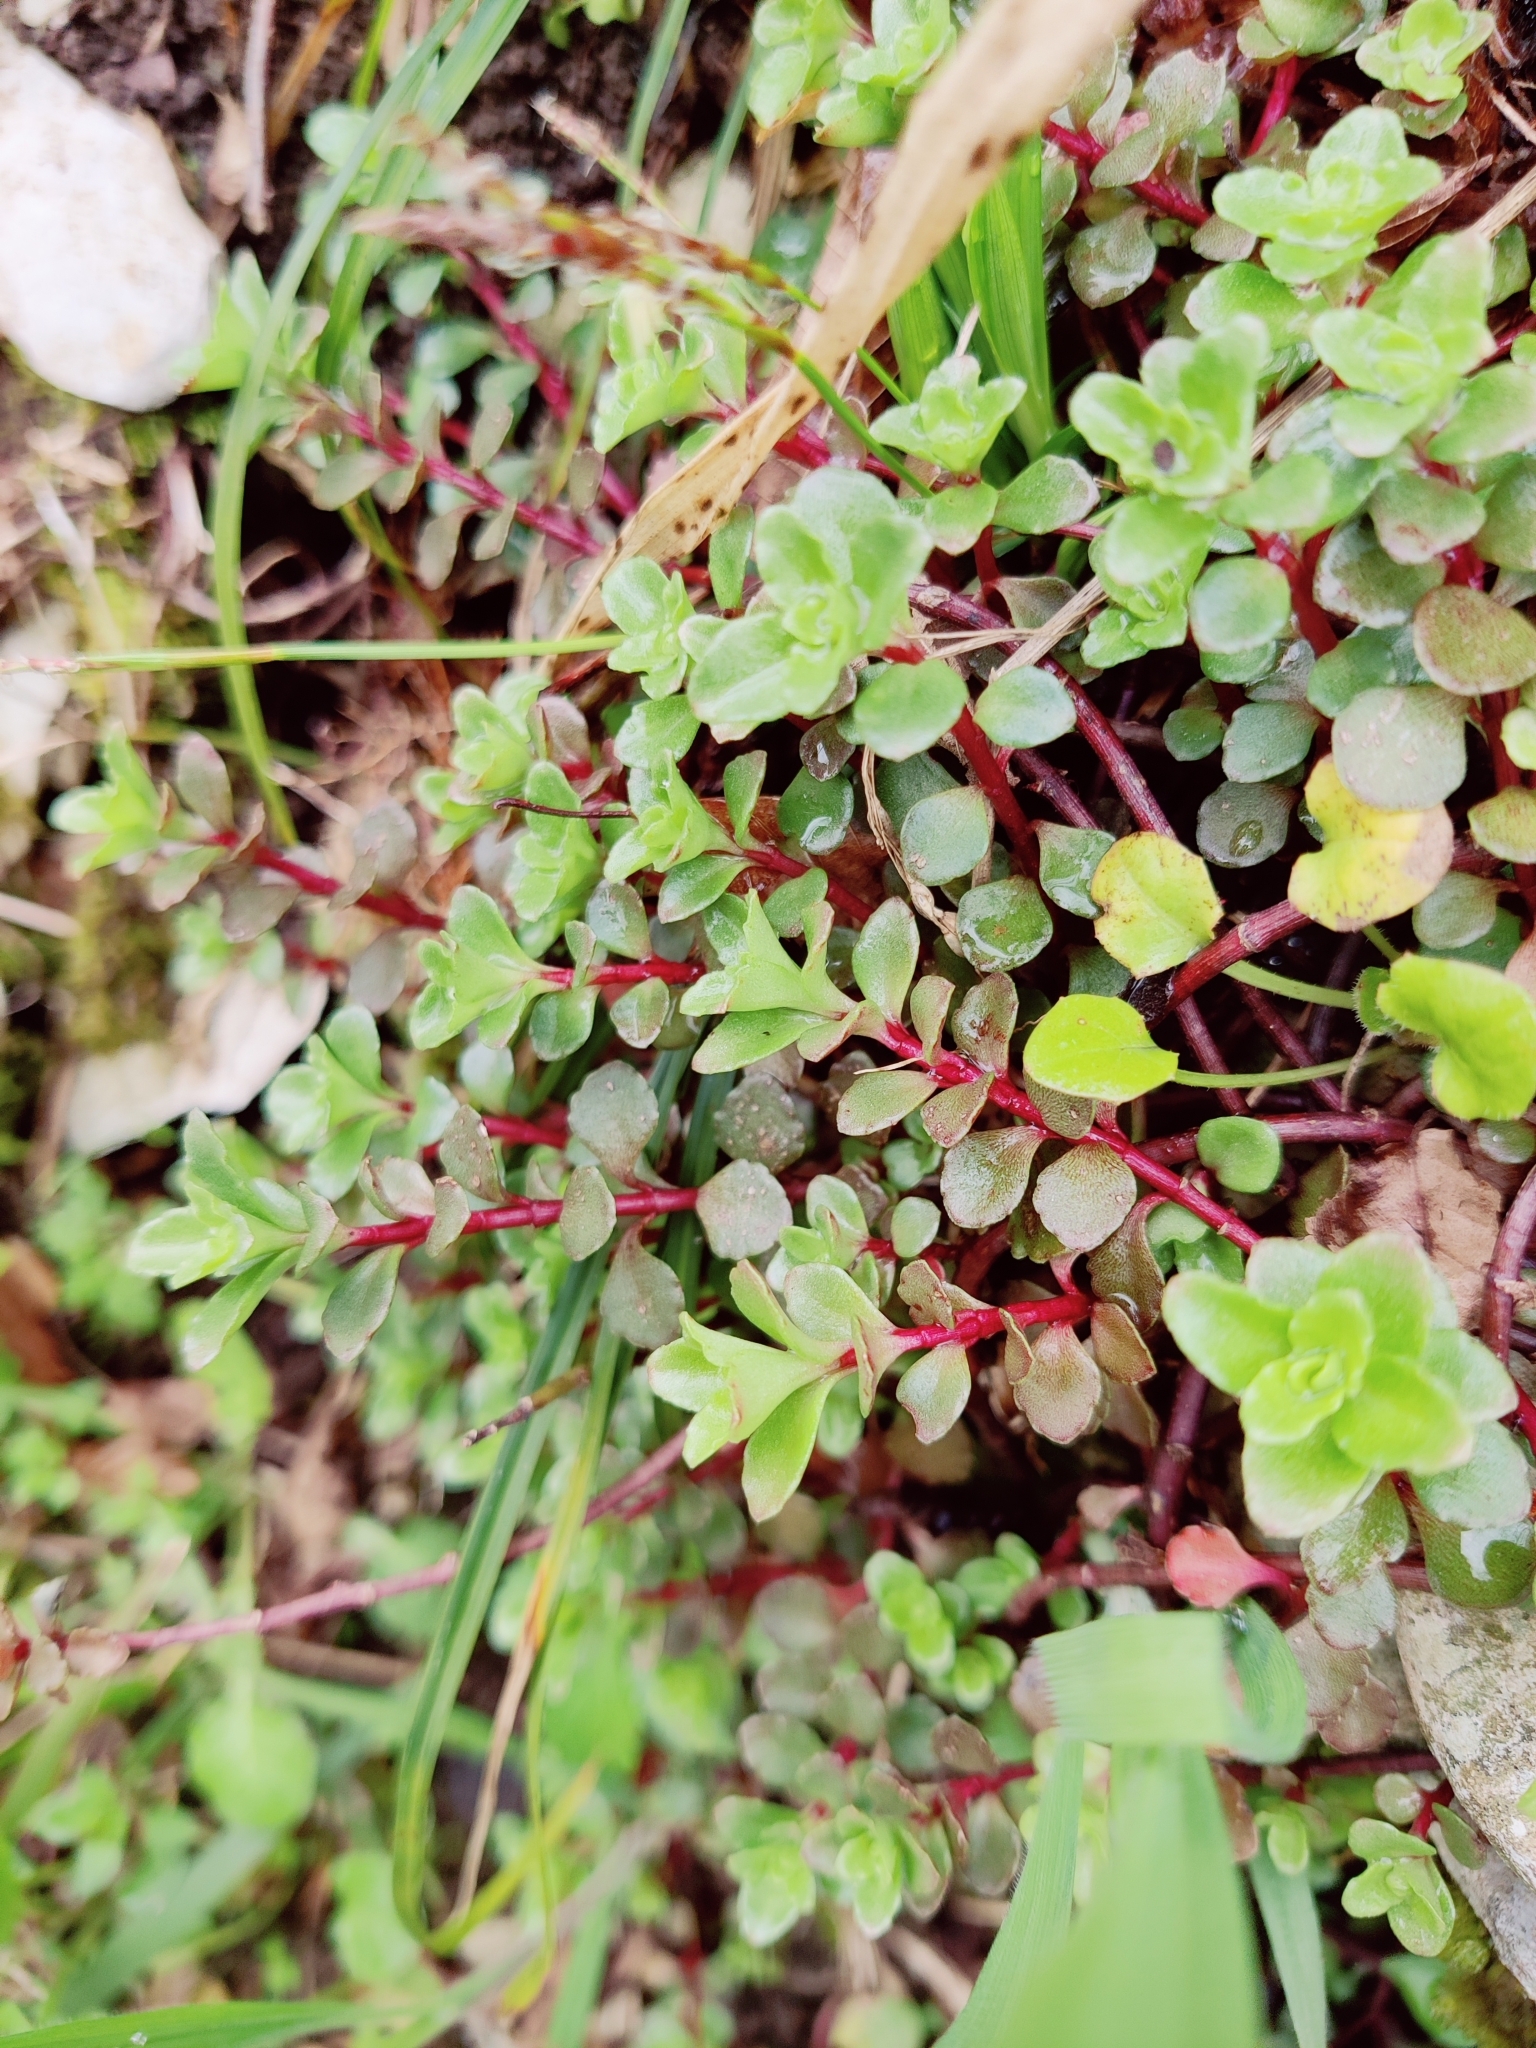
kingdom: Plantae
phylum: Tracheophyta
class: Magnoliopsida
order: Saxifragales
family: Crassulaceae
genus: Phedimus
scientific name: Phedimus stolonifer
